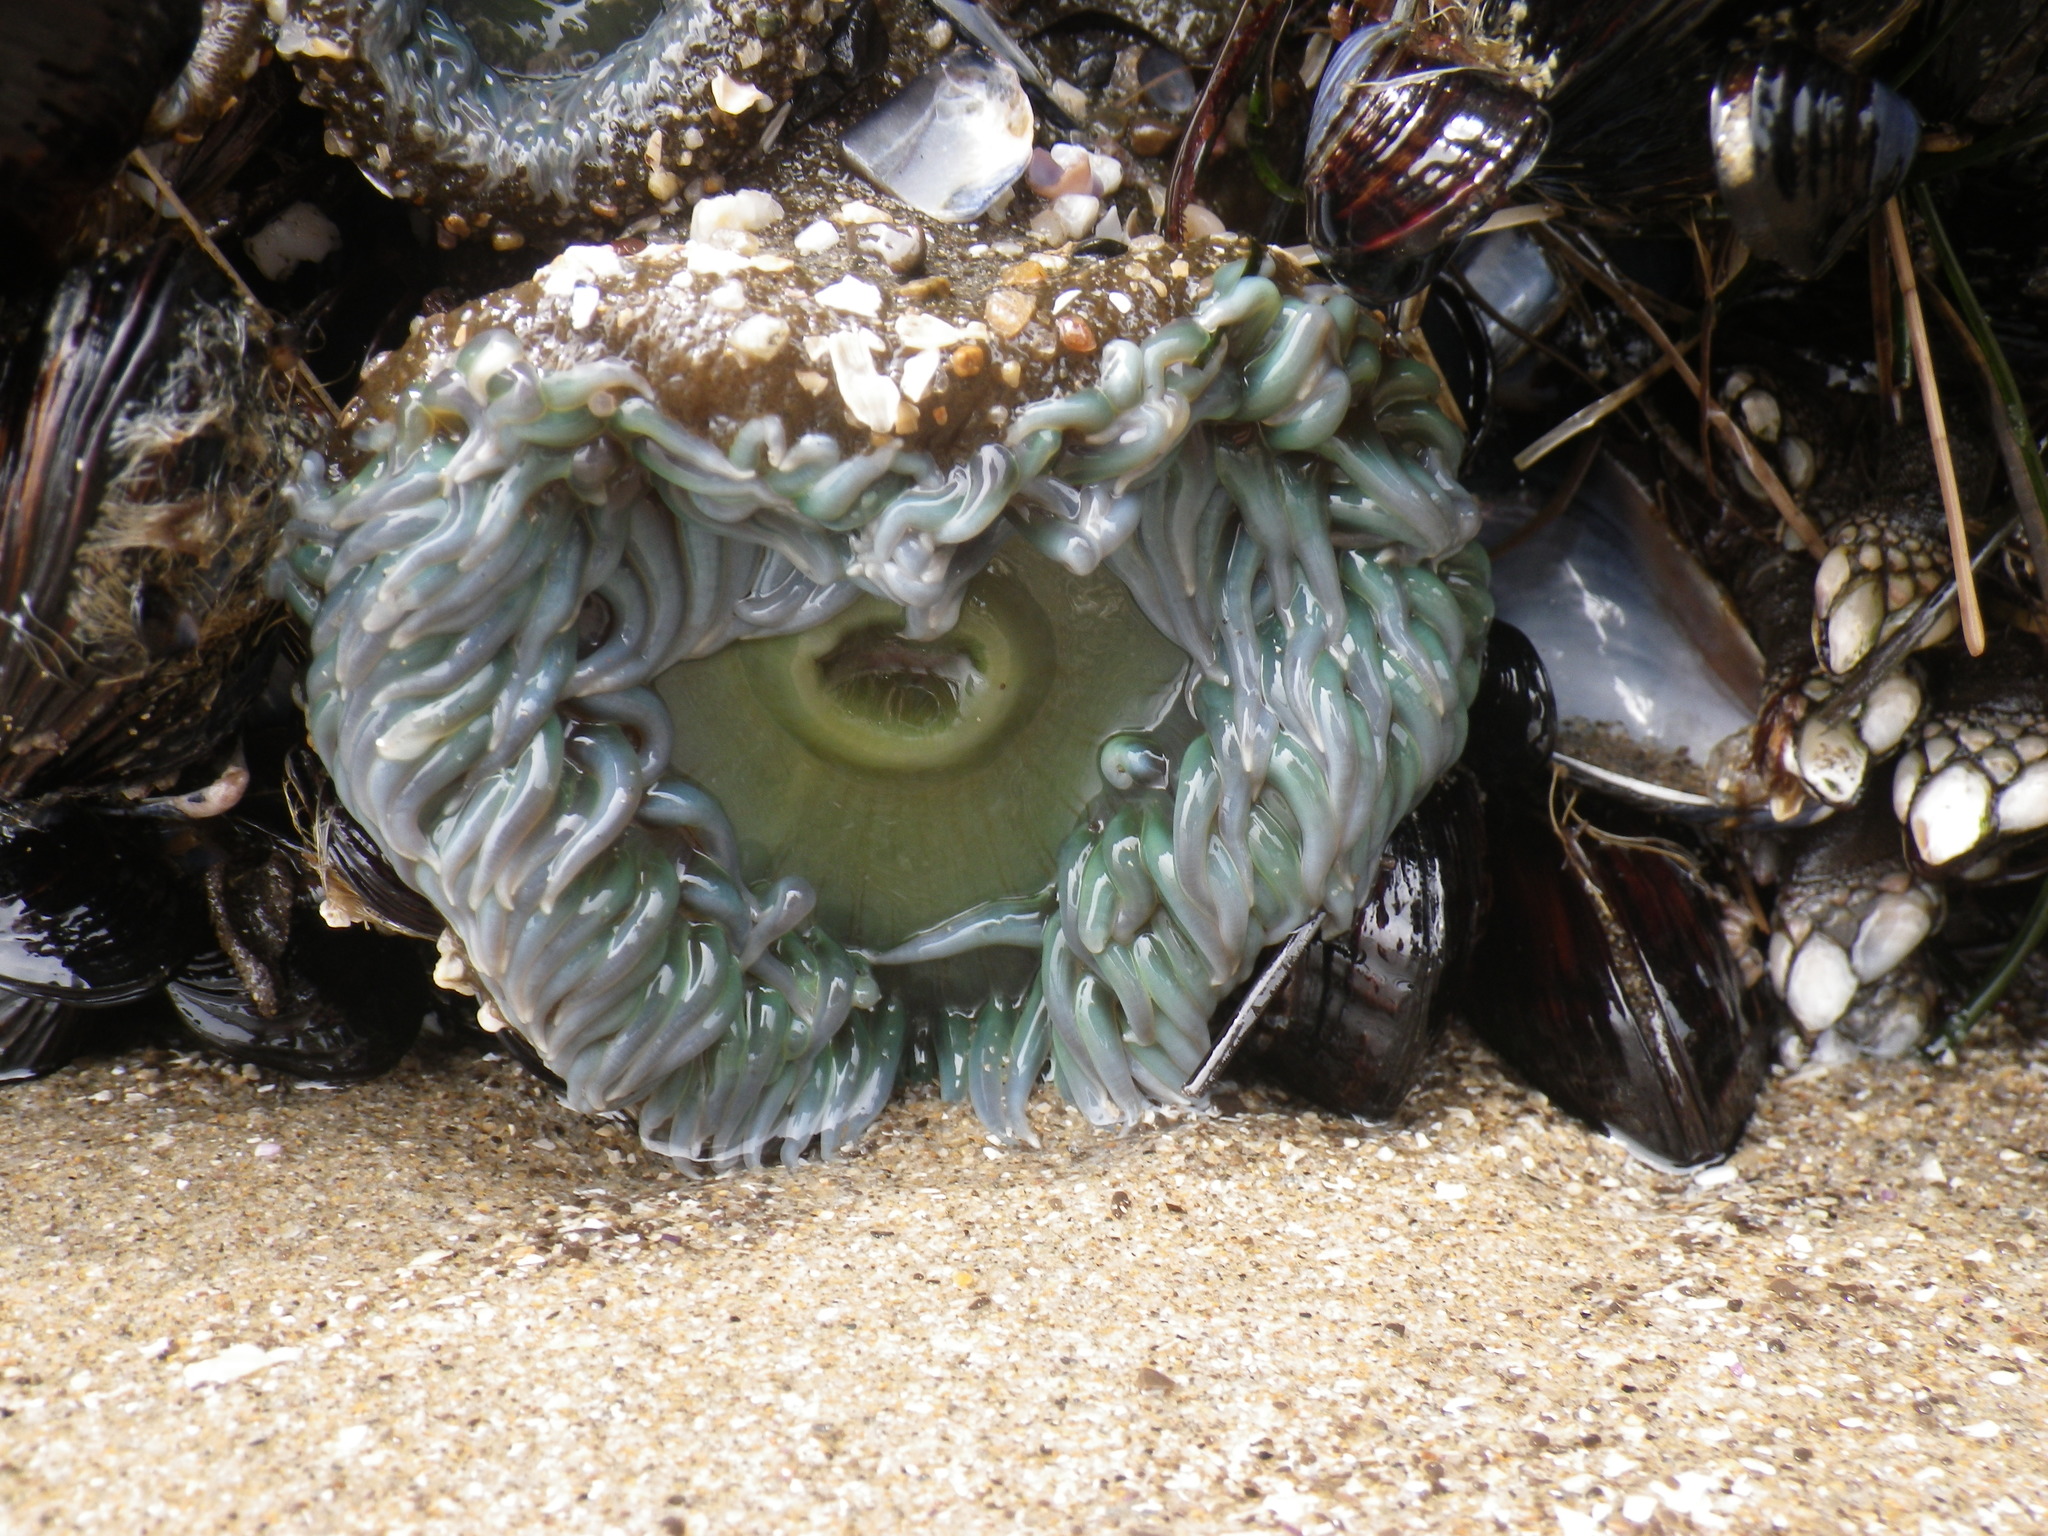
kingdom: Animalia
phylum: Cnidaria
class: Anthozoa
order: Actiniaria
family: Actiniidae
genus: Anthopleura
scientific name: Anthopleura xanthogrammica
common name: Giant green anemone
